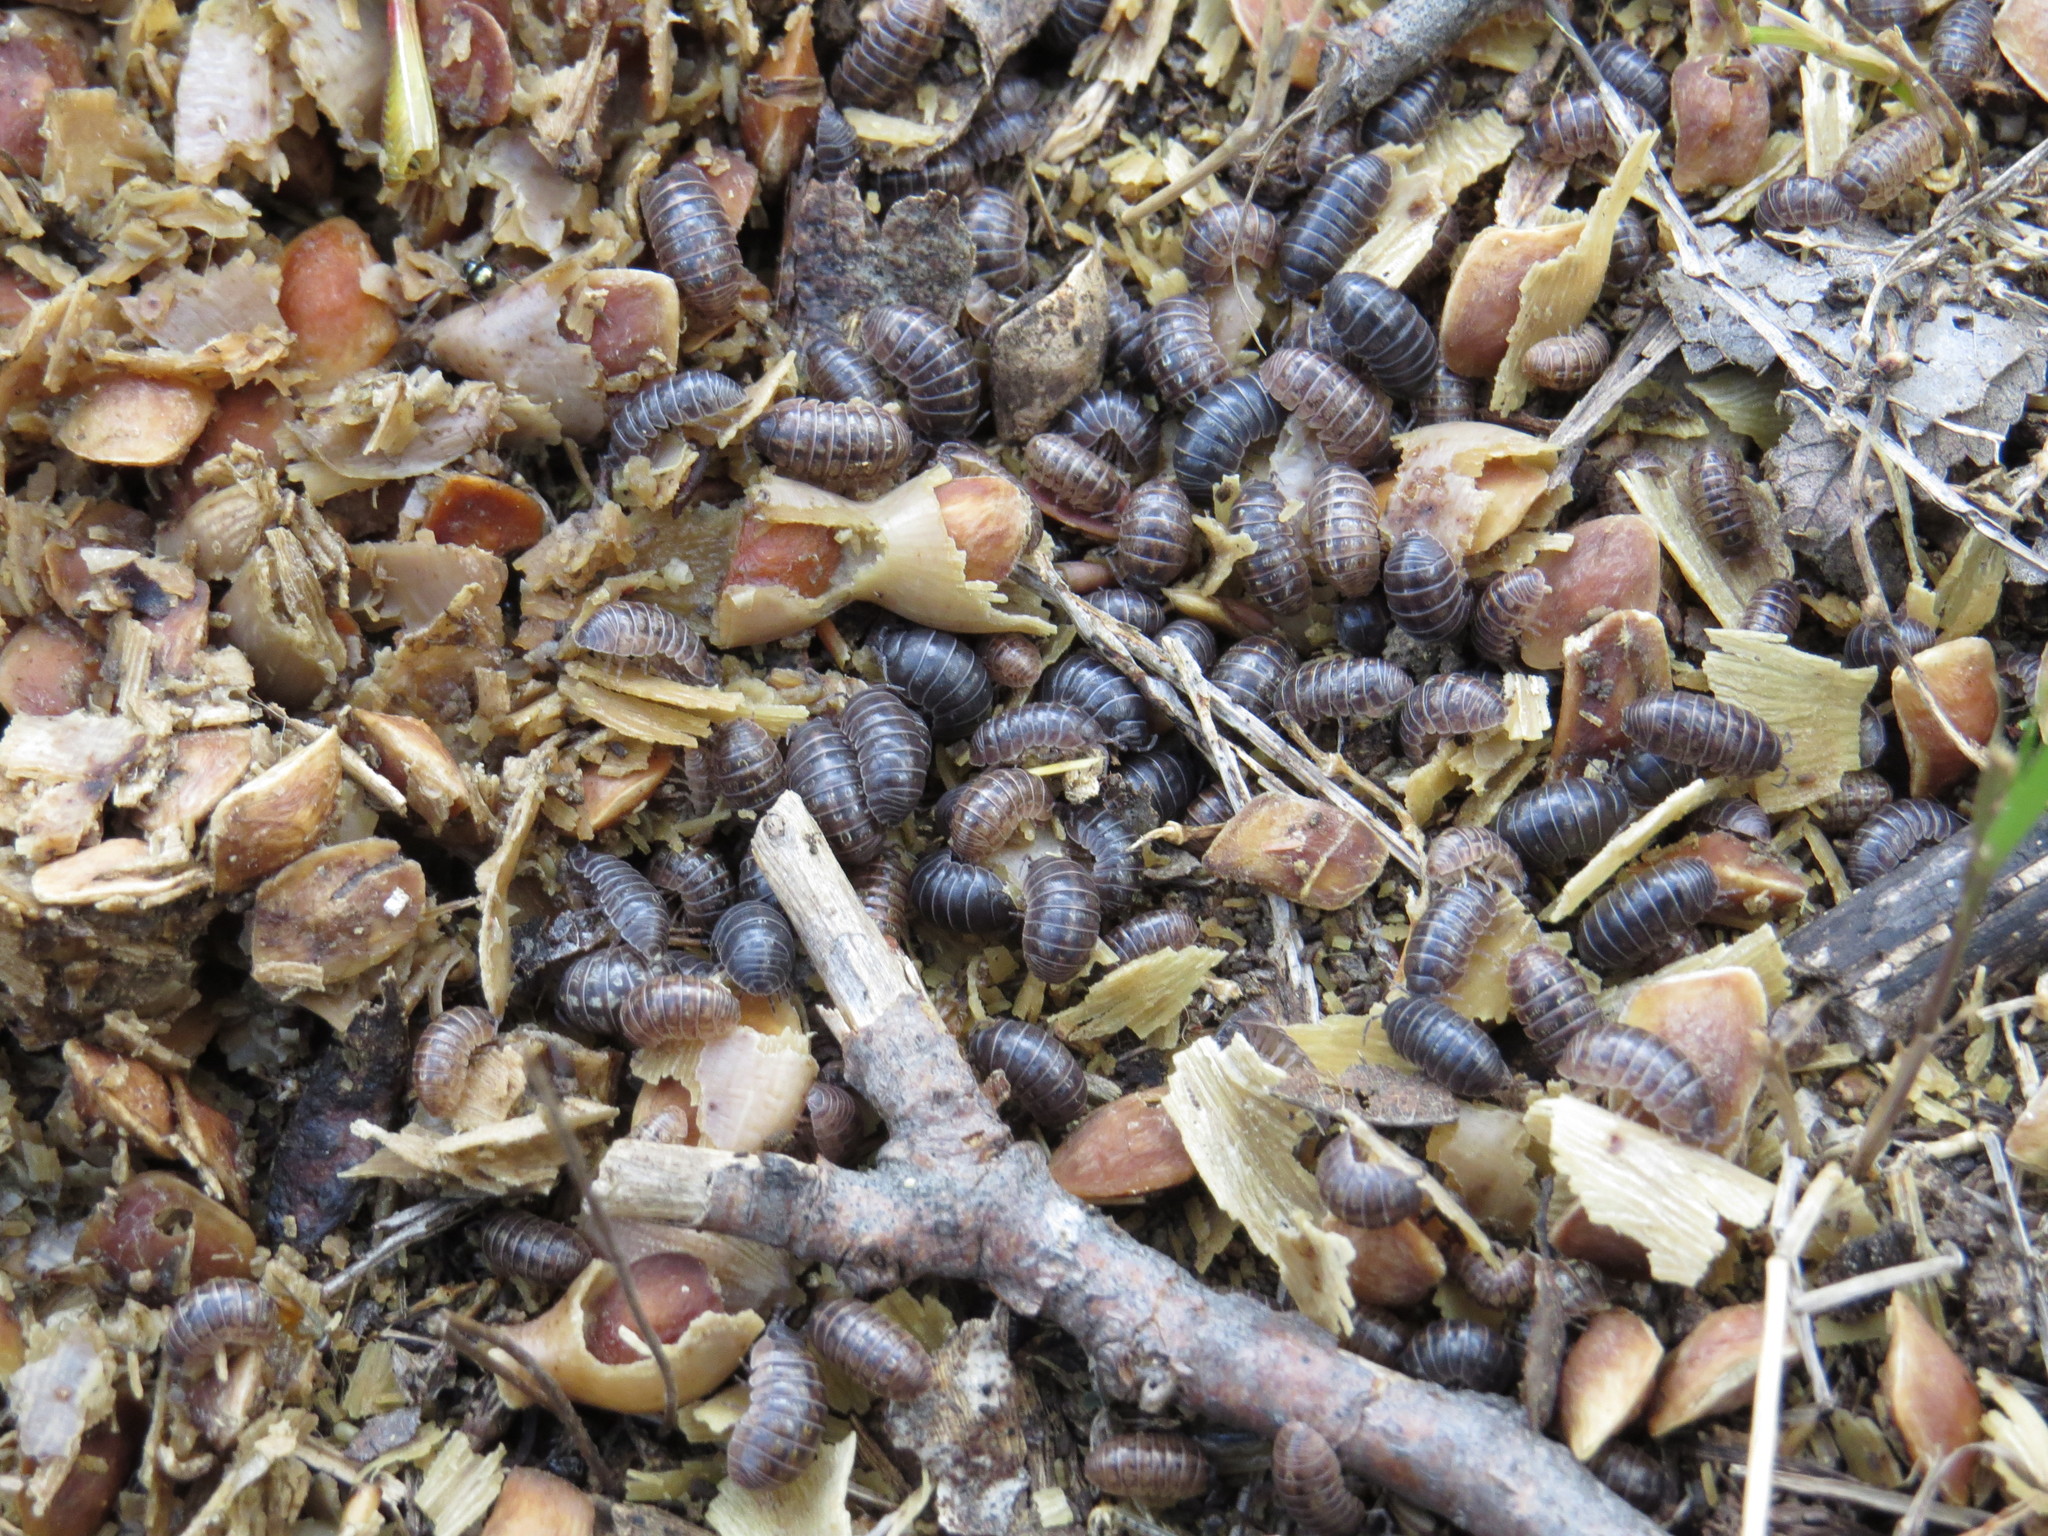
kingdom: Animalia
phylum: Arthropoda
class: Malacostraca
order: Isopoda
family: Armadillidiidae
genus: Armadillidium
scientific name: Armadillidium vulgare
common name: Common pill woodlouse
